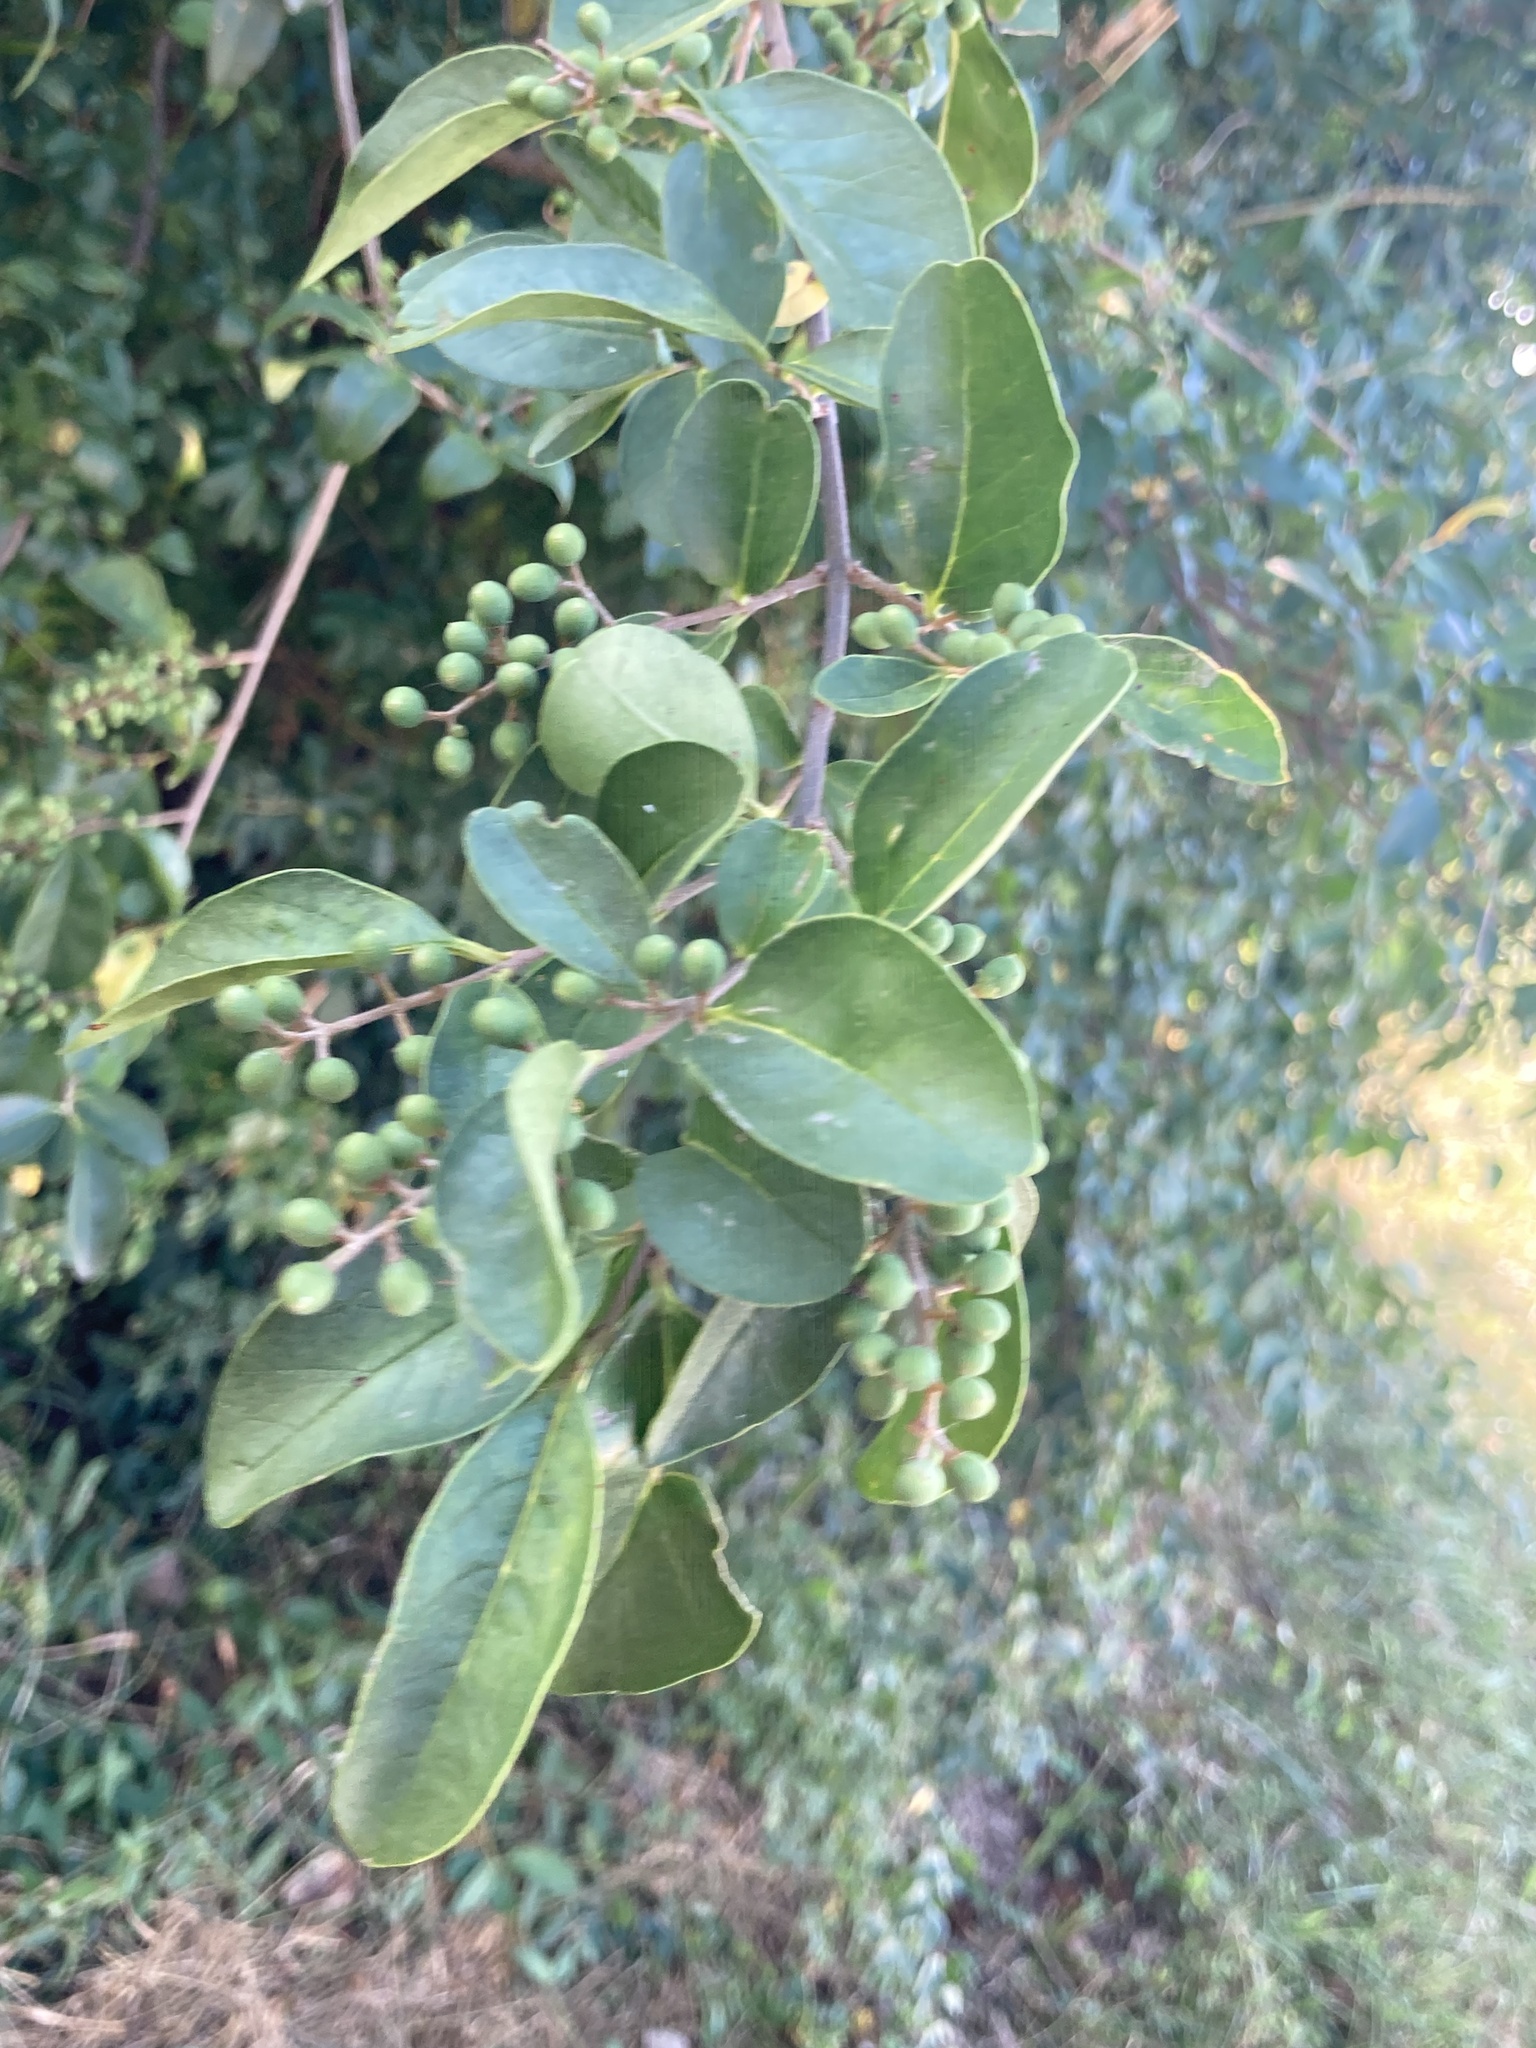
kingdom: Plantae
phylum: Tracheophyta
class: Magnoliopsida
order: Lamiales
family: Oleaceae
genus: Ligustrum
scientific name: Ligustrum sinense
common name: Chinese privet
